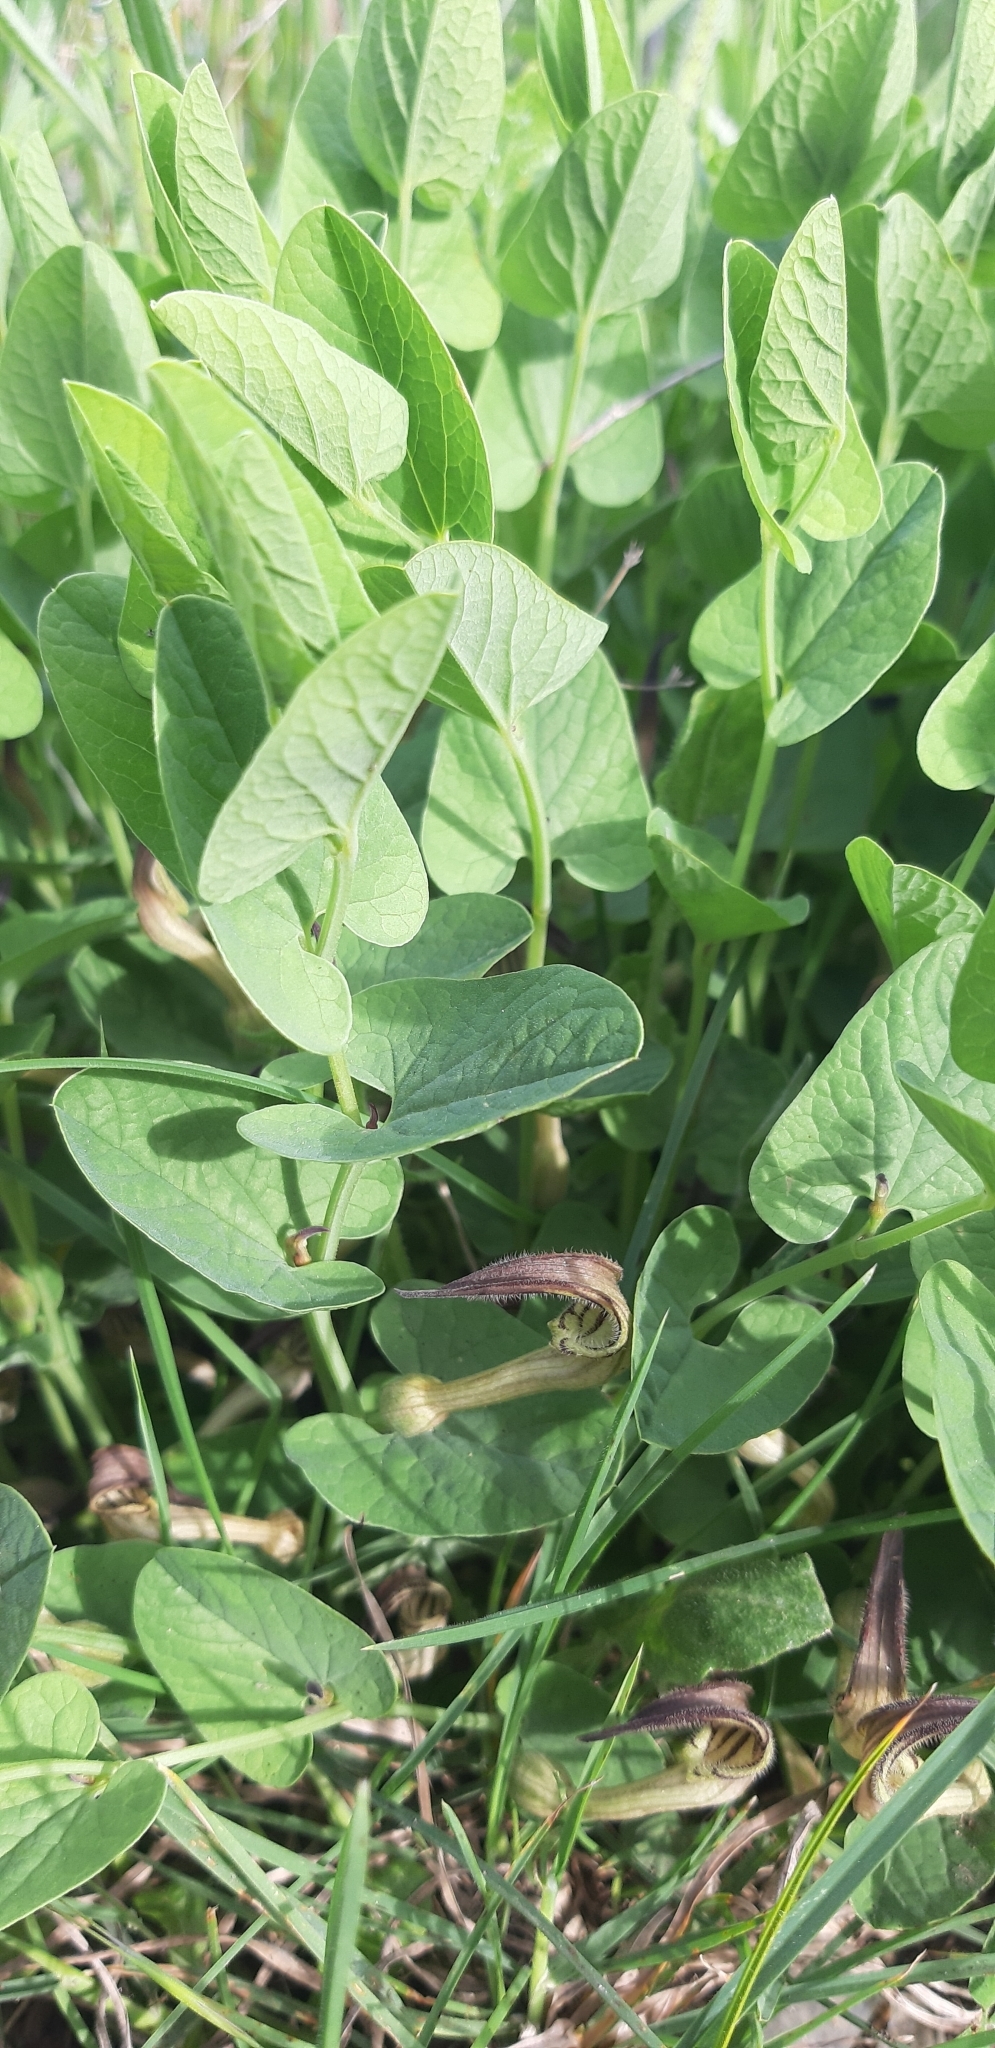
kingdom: Plantae
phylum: Tracheophyta
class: Magnoliopsida
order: Piperales
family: Aristolochiaceae
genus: Aristolochia
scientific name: Aristolochia clusii
